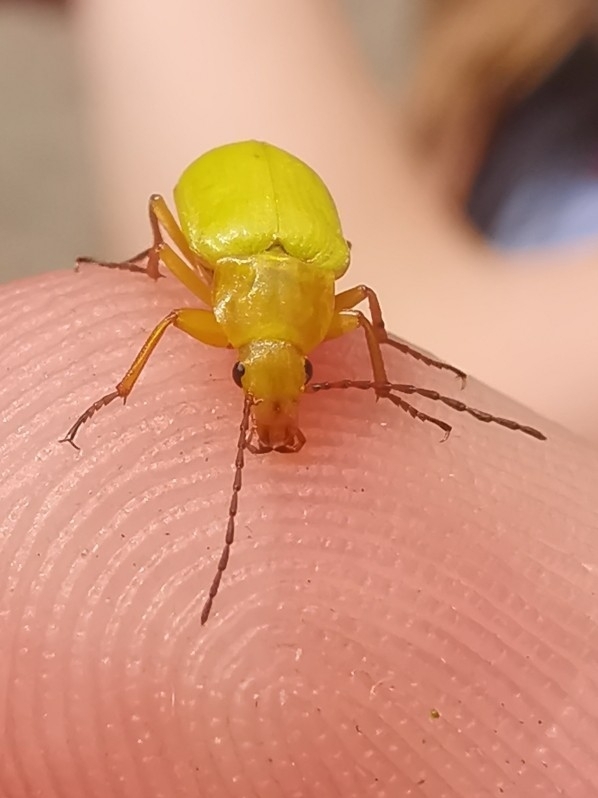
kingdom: Animalia
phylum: Arthropoda
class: Insecta
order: Coleoptera
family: Tenebrionidae
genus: Cteniopus
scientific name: Cteniopus sulphureus
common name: Sulphur beetle
